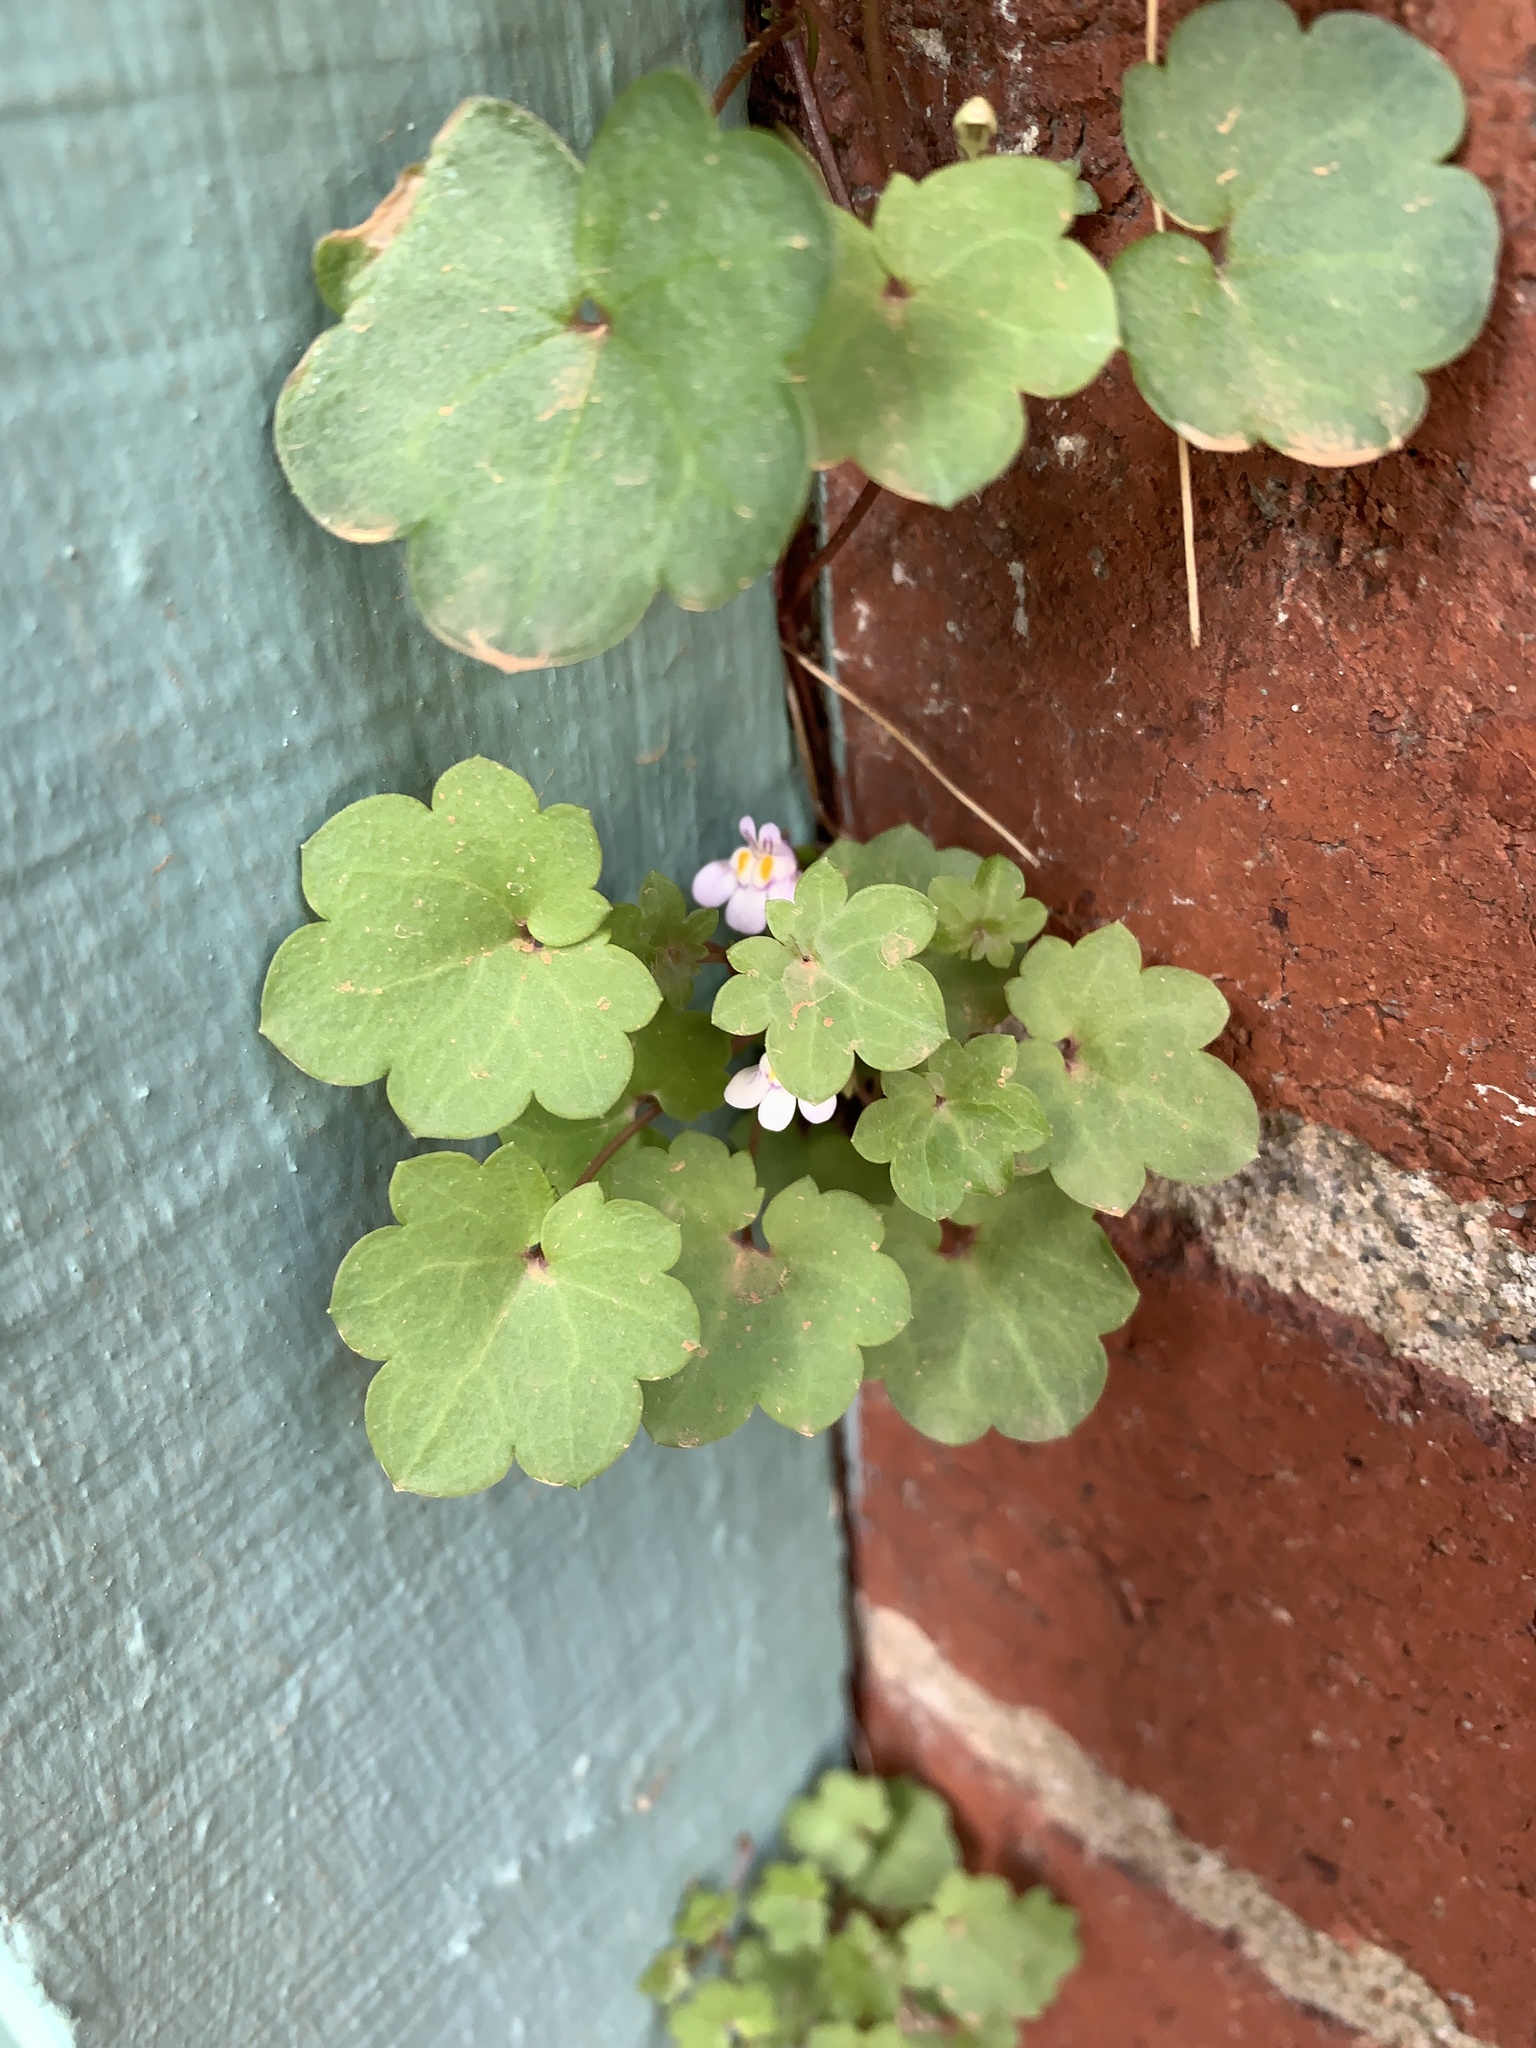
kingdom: Plantae
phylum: Tracheophyta
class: Magnoliopsida
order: Lamiales
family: Plantaginaceae
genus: Cymbalaria
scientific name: Cymbalaria muralis
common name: Ivy-leaved toadflax
